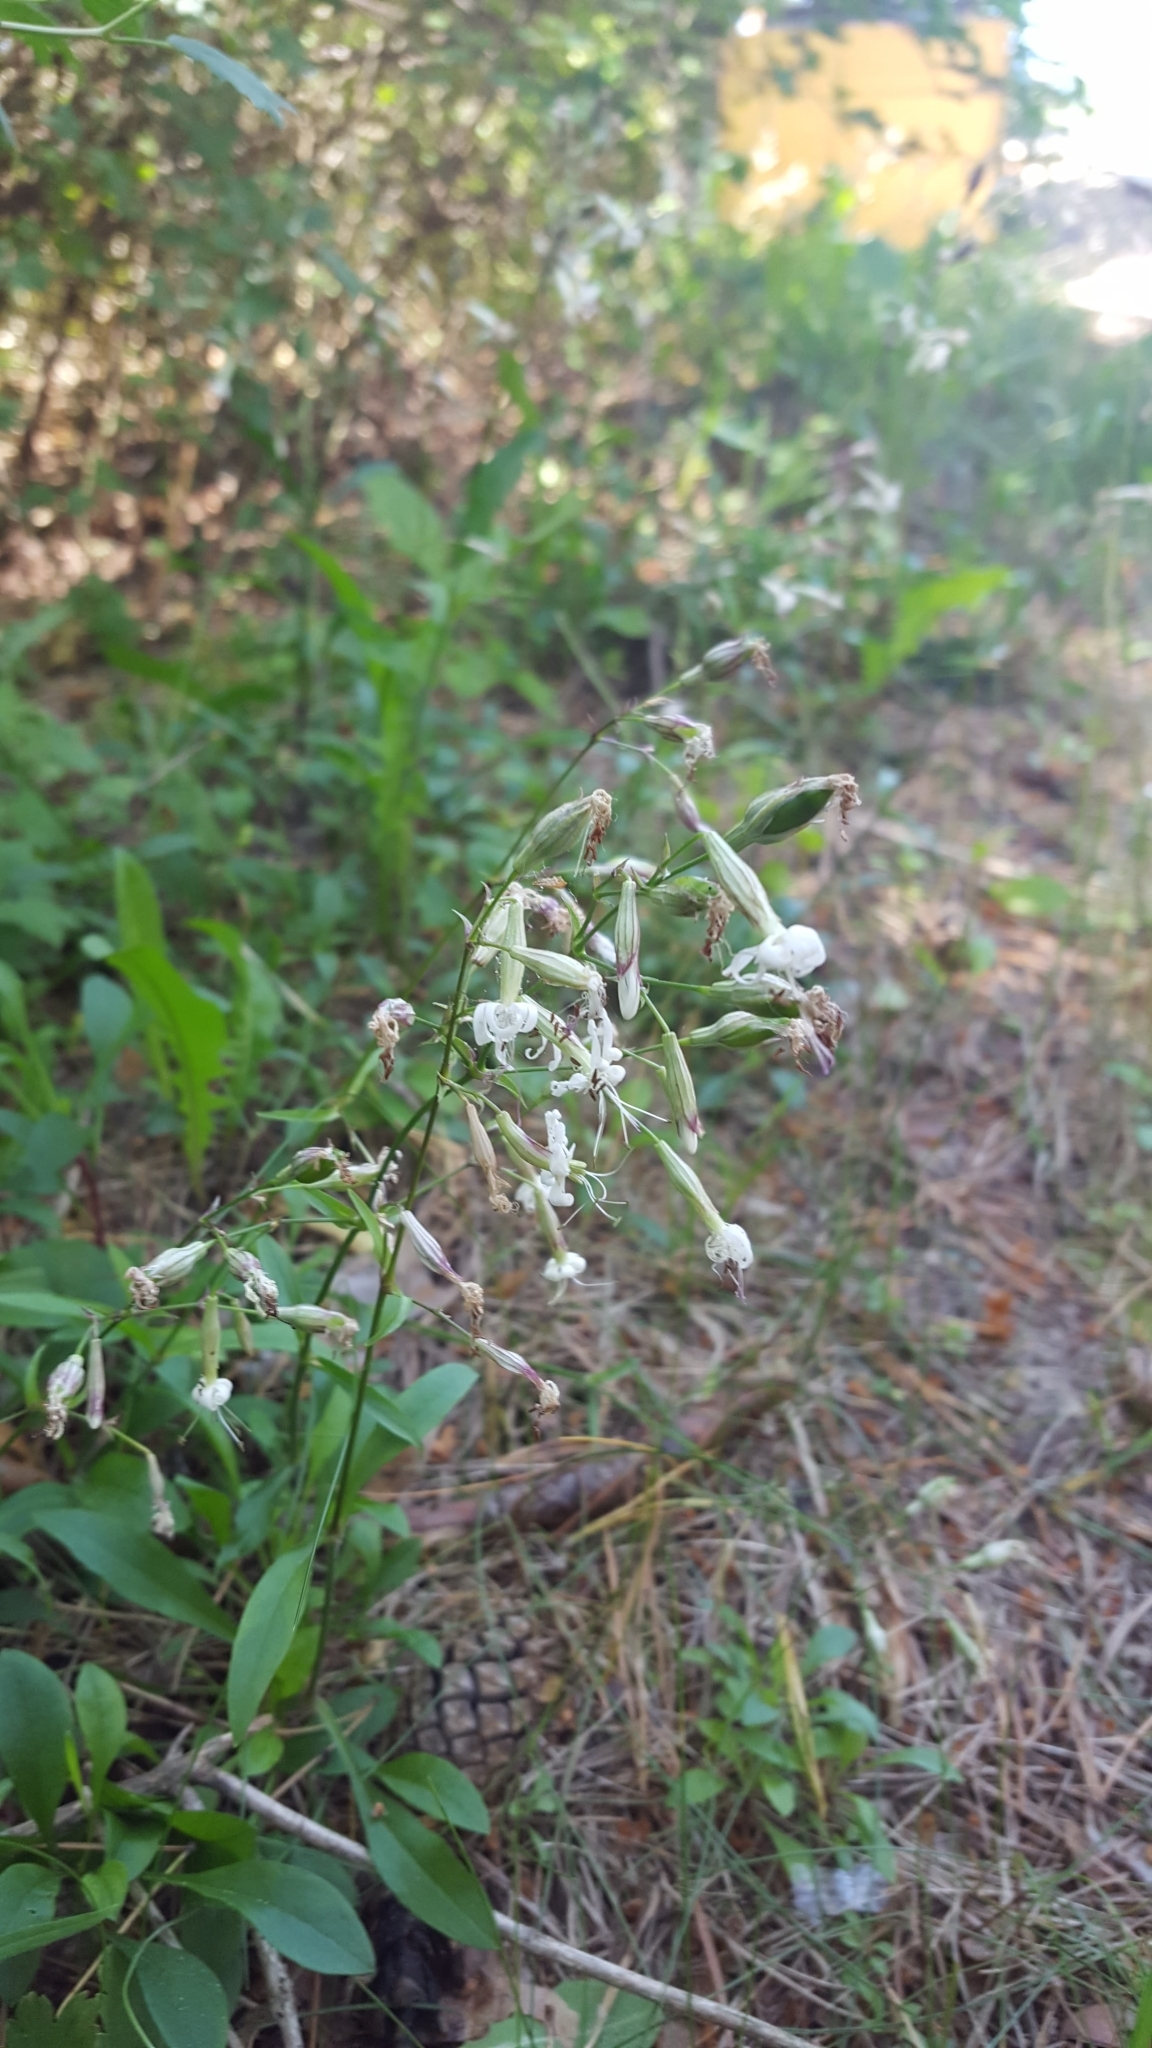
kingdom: Plantae
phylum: Tracheophyta
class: Magnoliopsida
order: Caryophyllales
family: Caryophyllaceae
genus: Silene
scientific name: Silene nutans
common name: Nottingham catchfly
